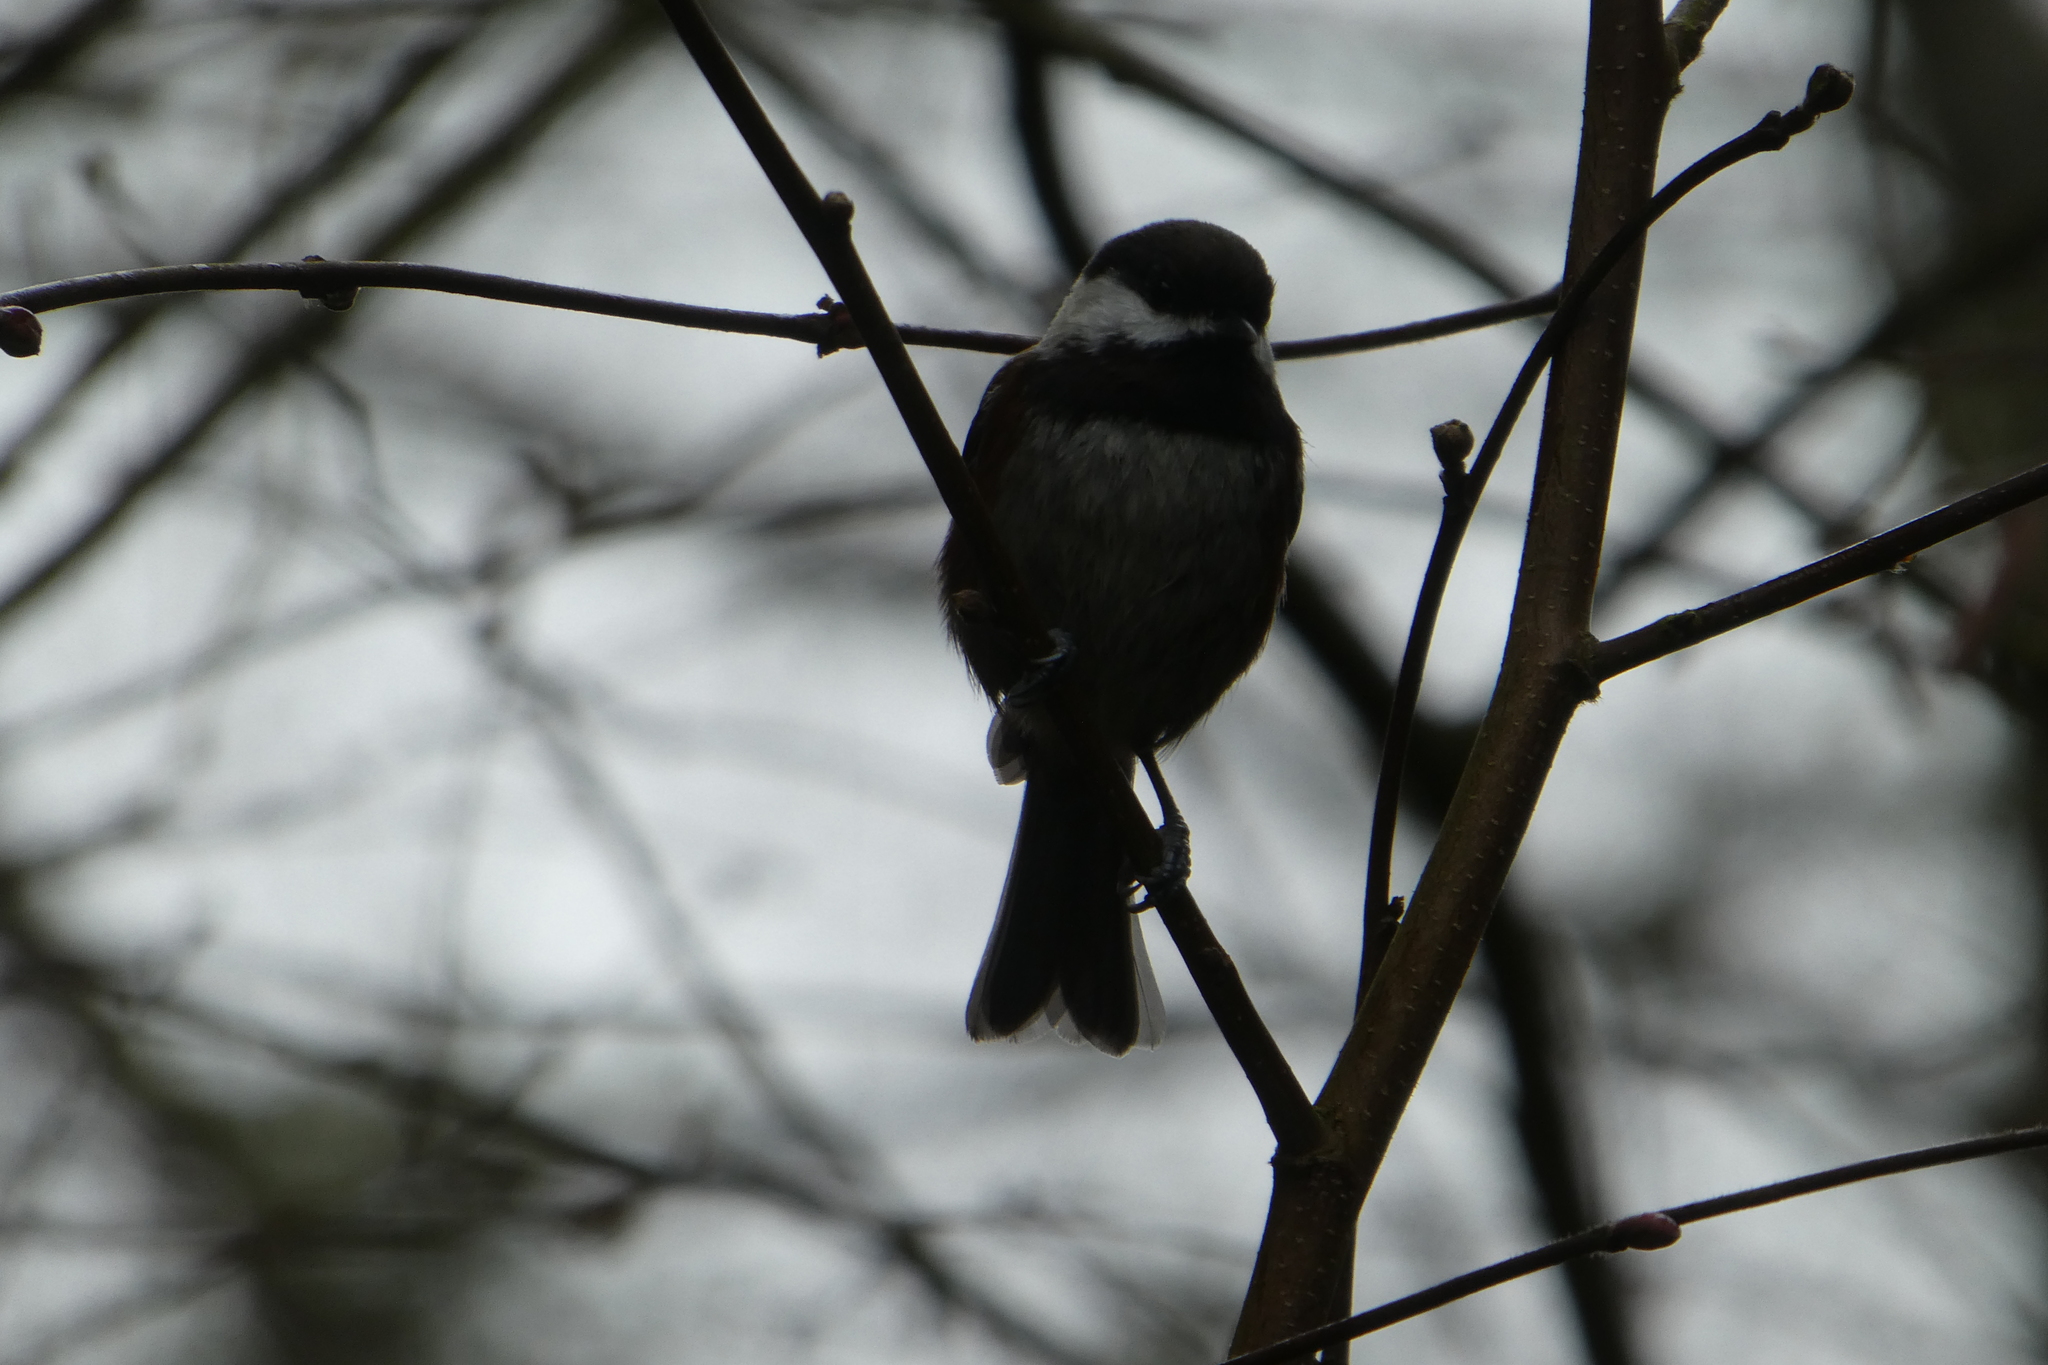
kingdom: Animalia
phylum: Chordata
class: Aves
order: Passeriformes
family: Paridae
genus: Poecile
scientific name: Poecile rufescens
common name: Chestnut-backed chickadee
